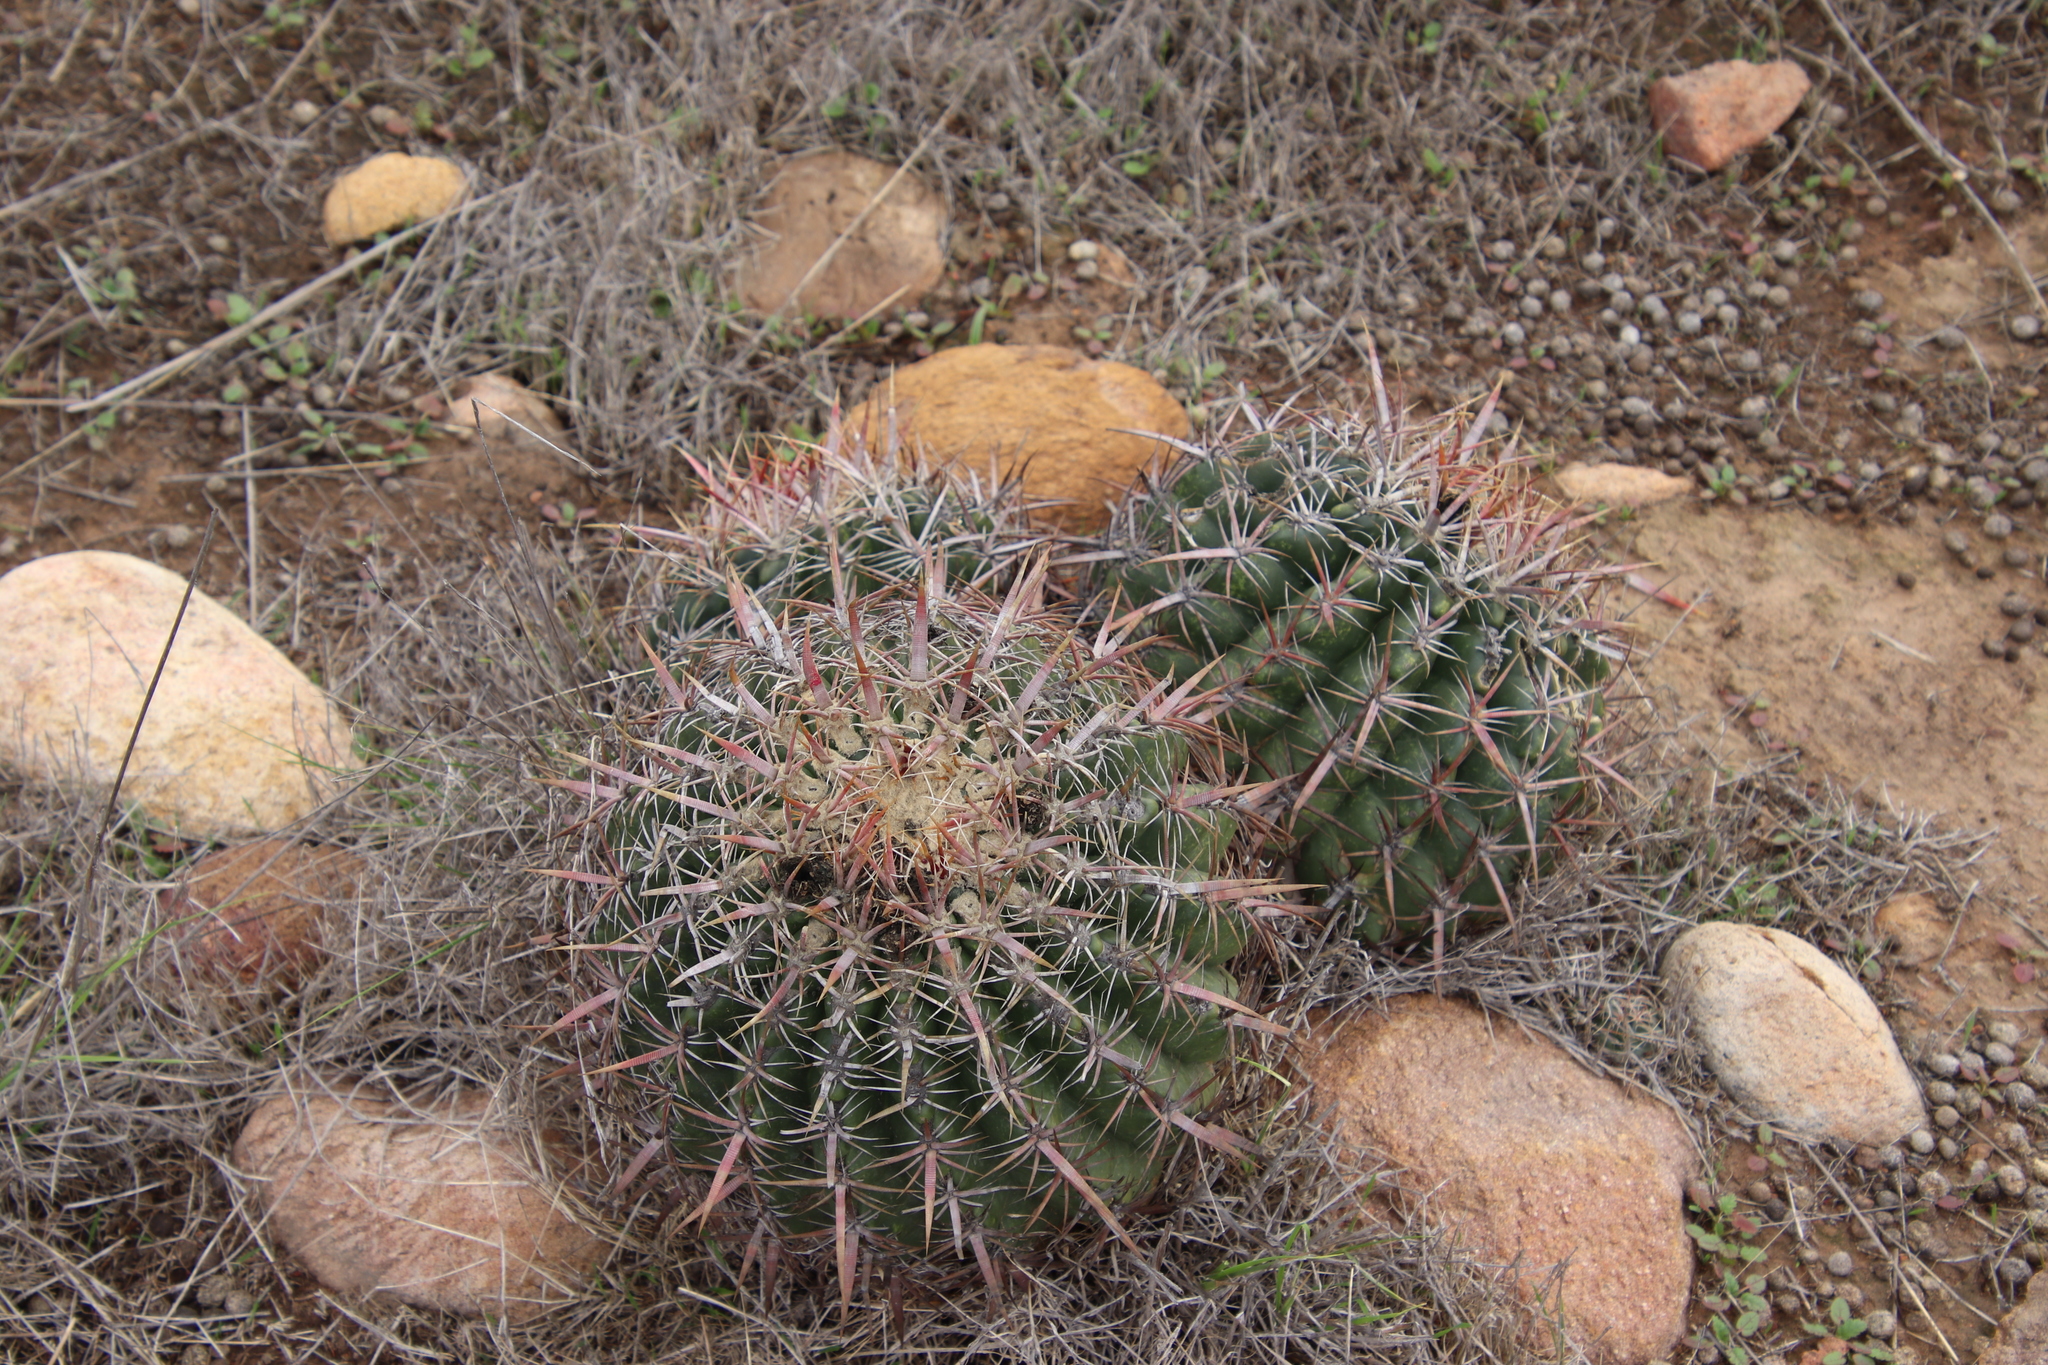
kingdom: Plantae
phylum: Tracheophyta
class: Magnoliopsida
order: Caryophyllales
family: Cactaceae
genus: Ferocactus
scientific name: Ferocactus viridescens
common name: San diego barrel cactus
